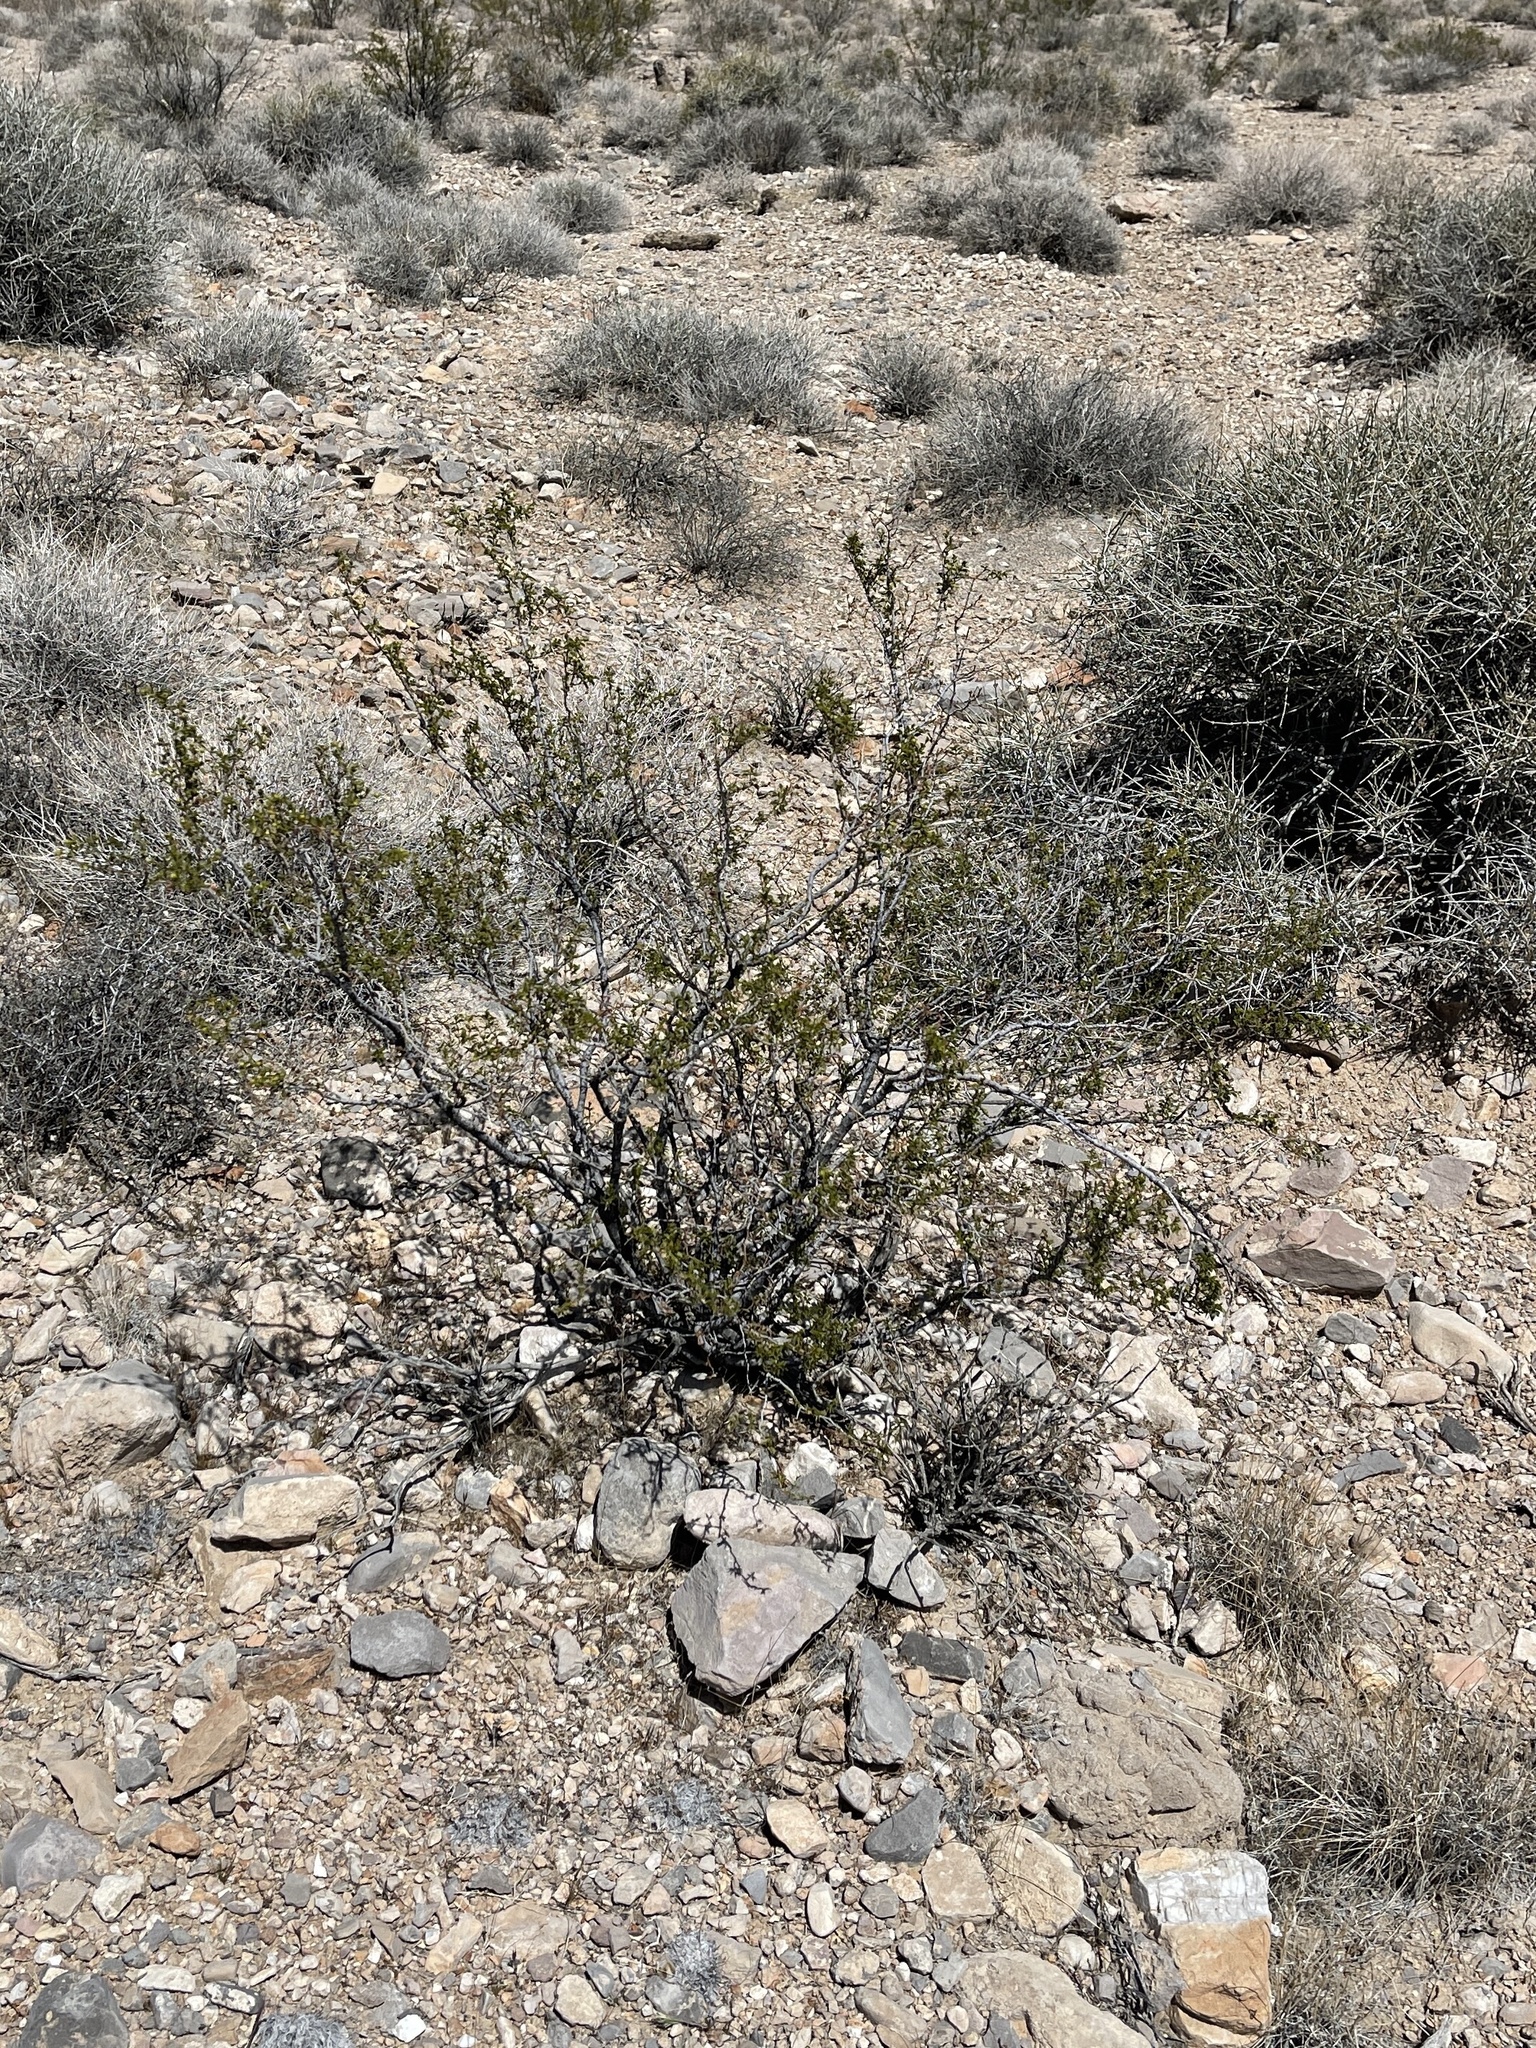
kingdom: Plantae
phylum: Tracheophyta
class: Magnoliopsida
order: Zygophyllales
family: Zygophyllaceae
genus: Larrea
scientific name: Larrea tridentata
